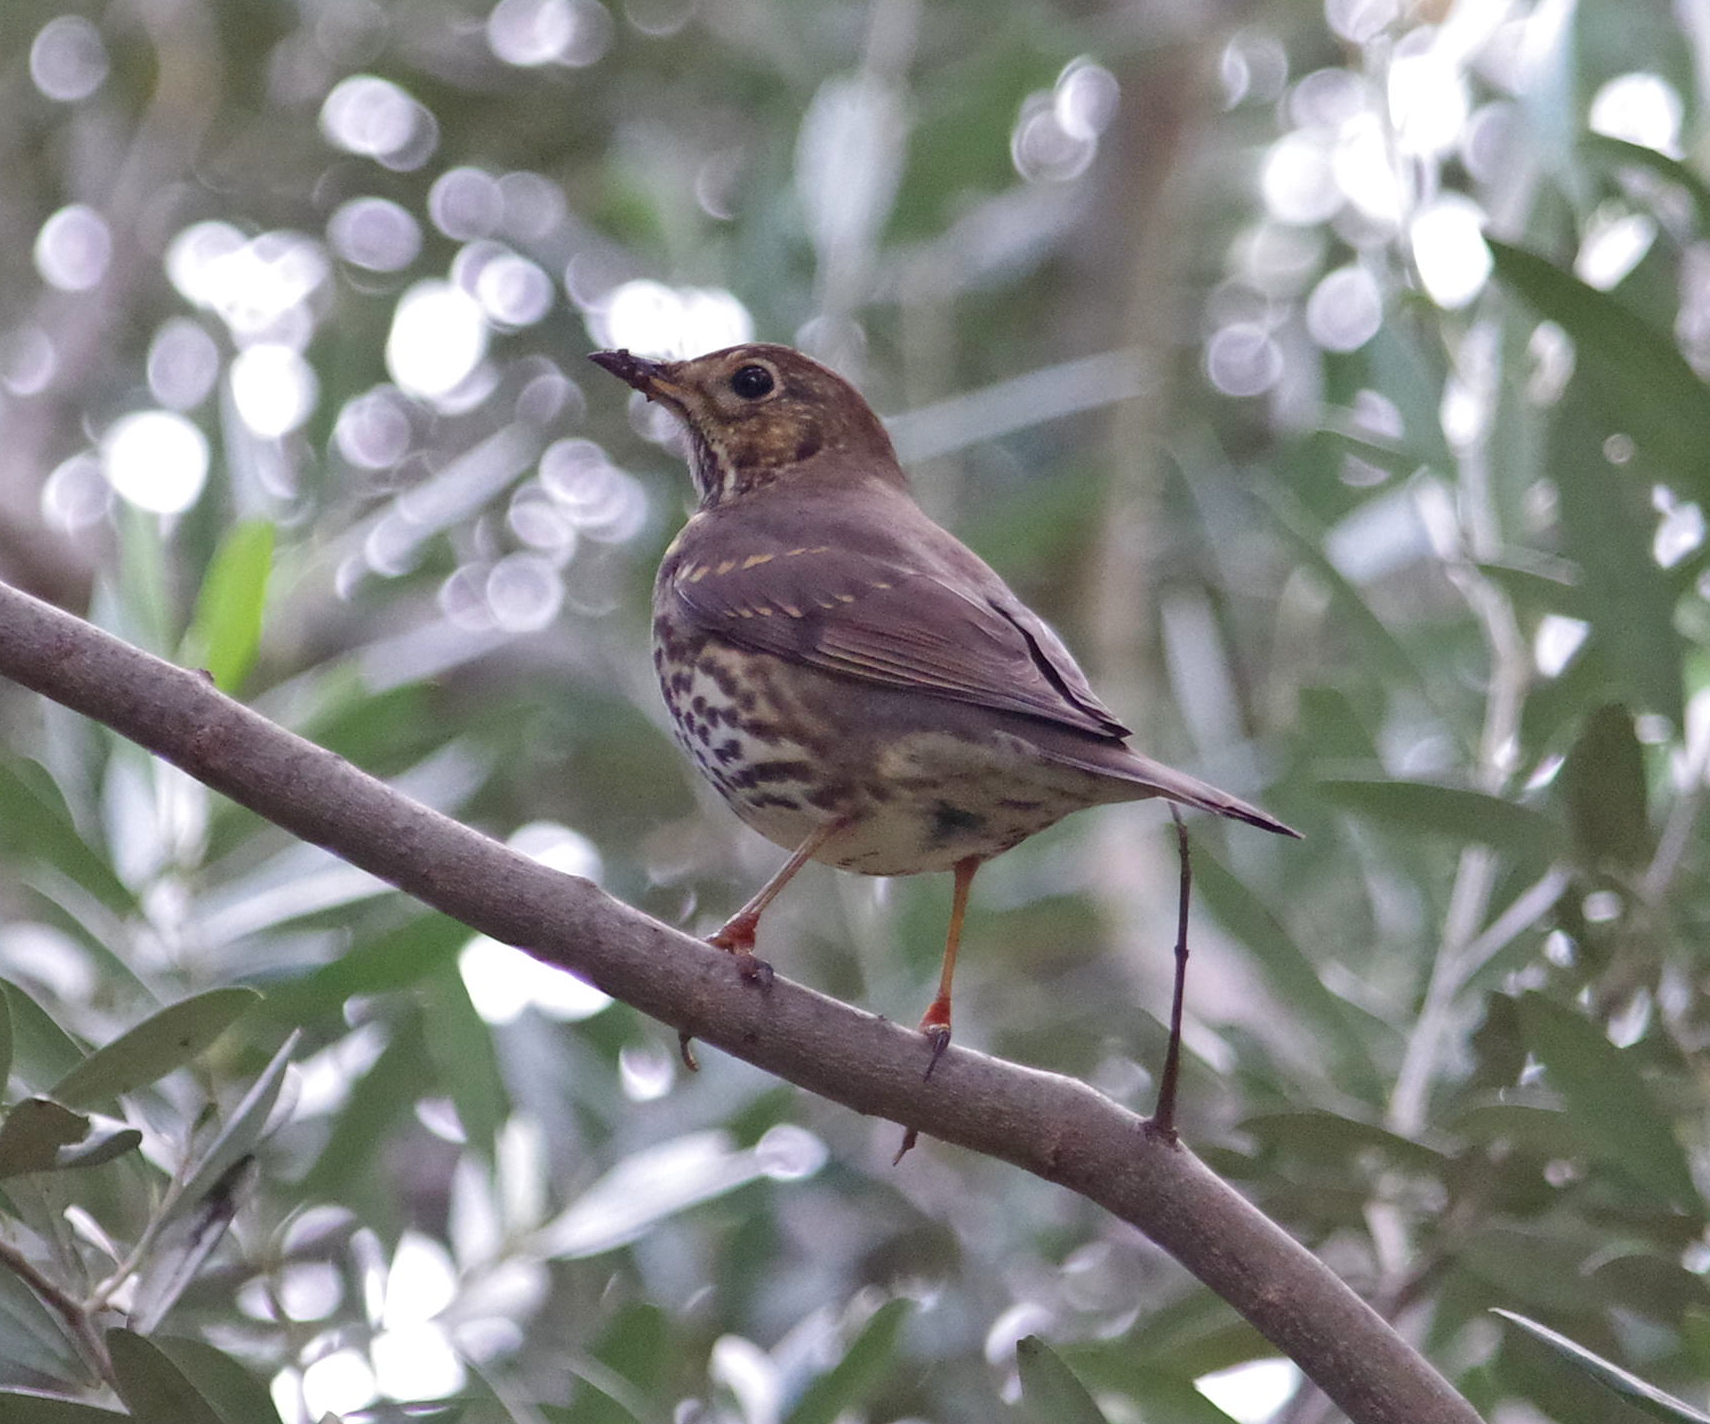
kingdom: Animalia
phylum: Chordata
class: Aves
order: Passeriformes
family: Turdidae
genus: Turdus
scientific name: Turdus philomelos
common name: Song thrush
